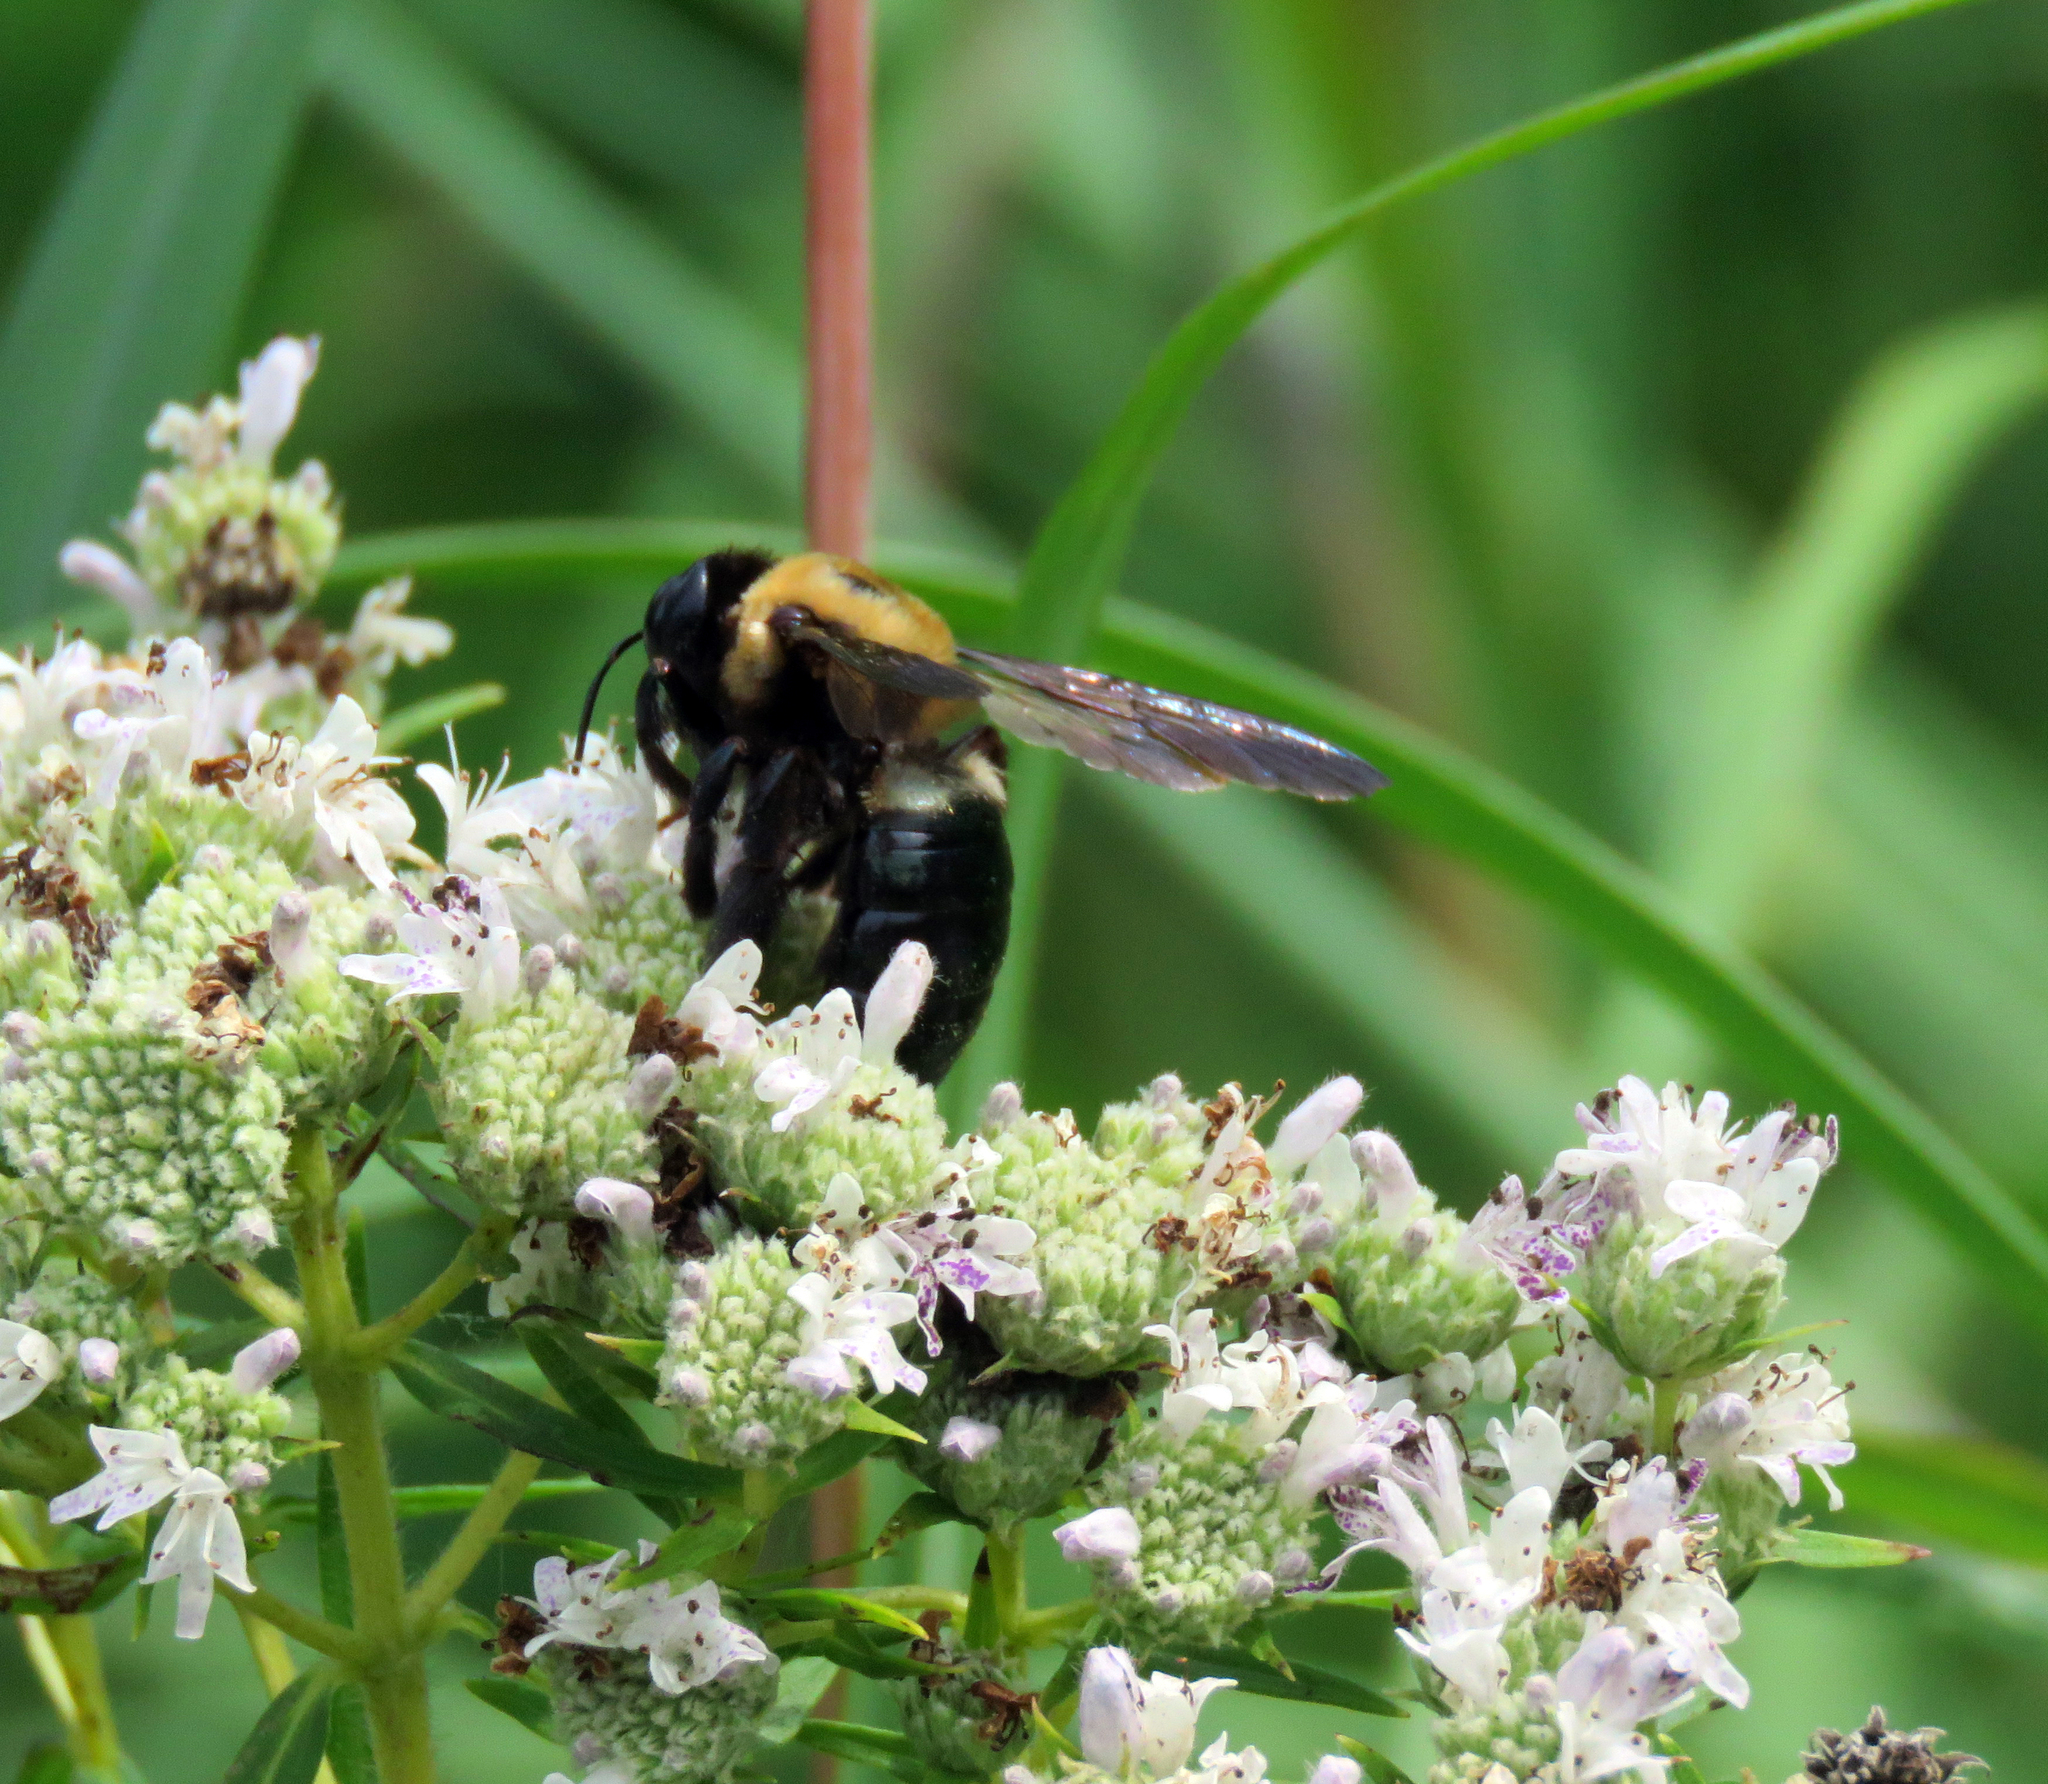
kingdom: Animalia
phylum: Arthropoda
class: Insecta
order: Hymenoptera
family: Apidae
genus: Xylocopa
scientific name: Xylocopa virginica
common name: Carpenter bee
